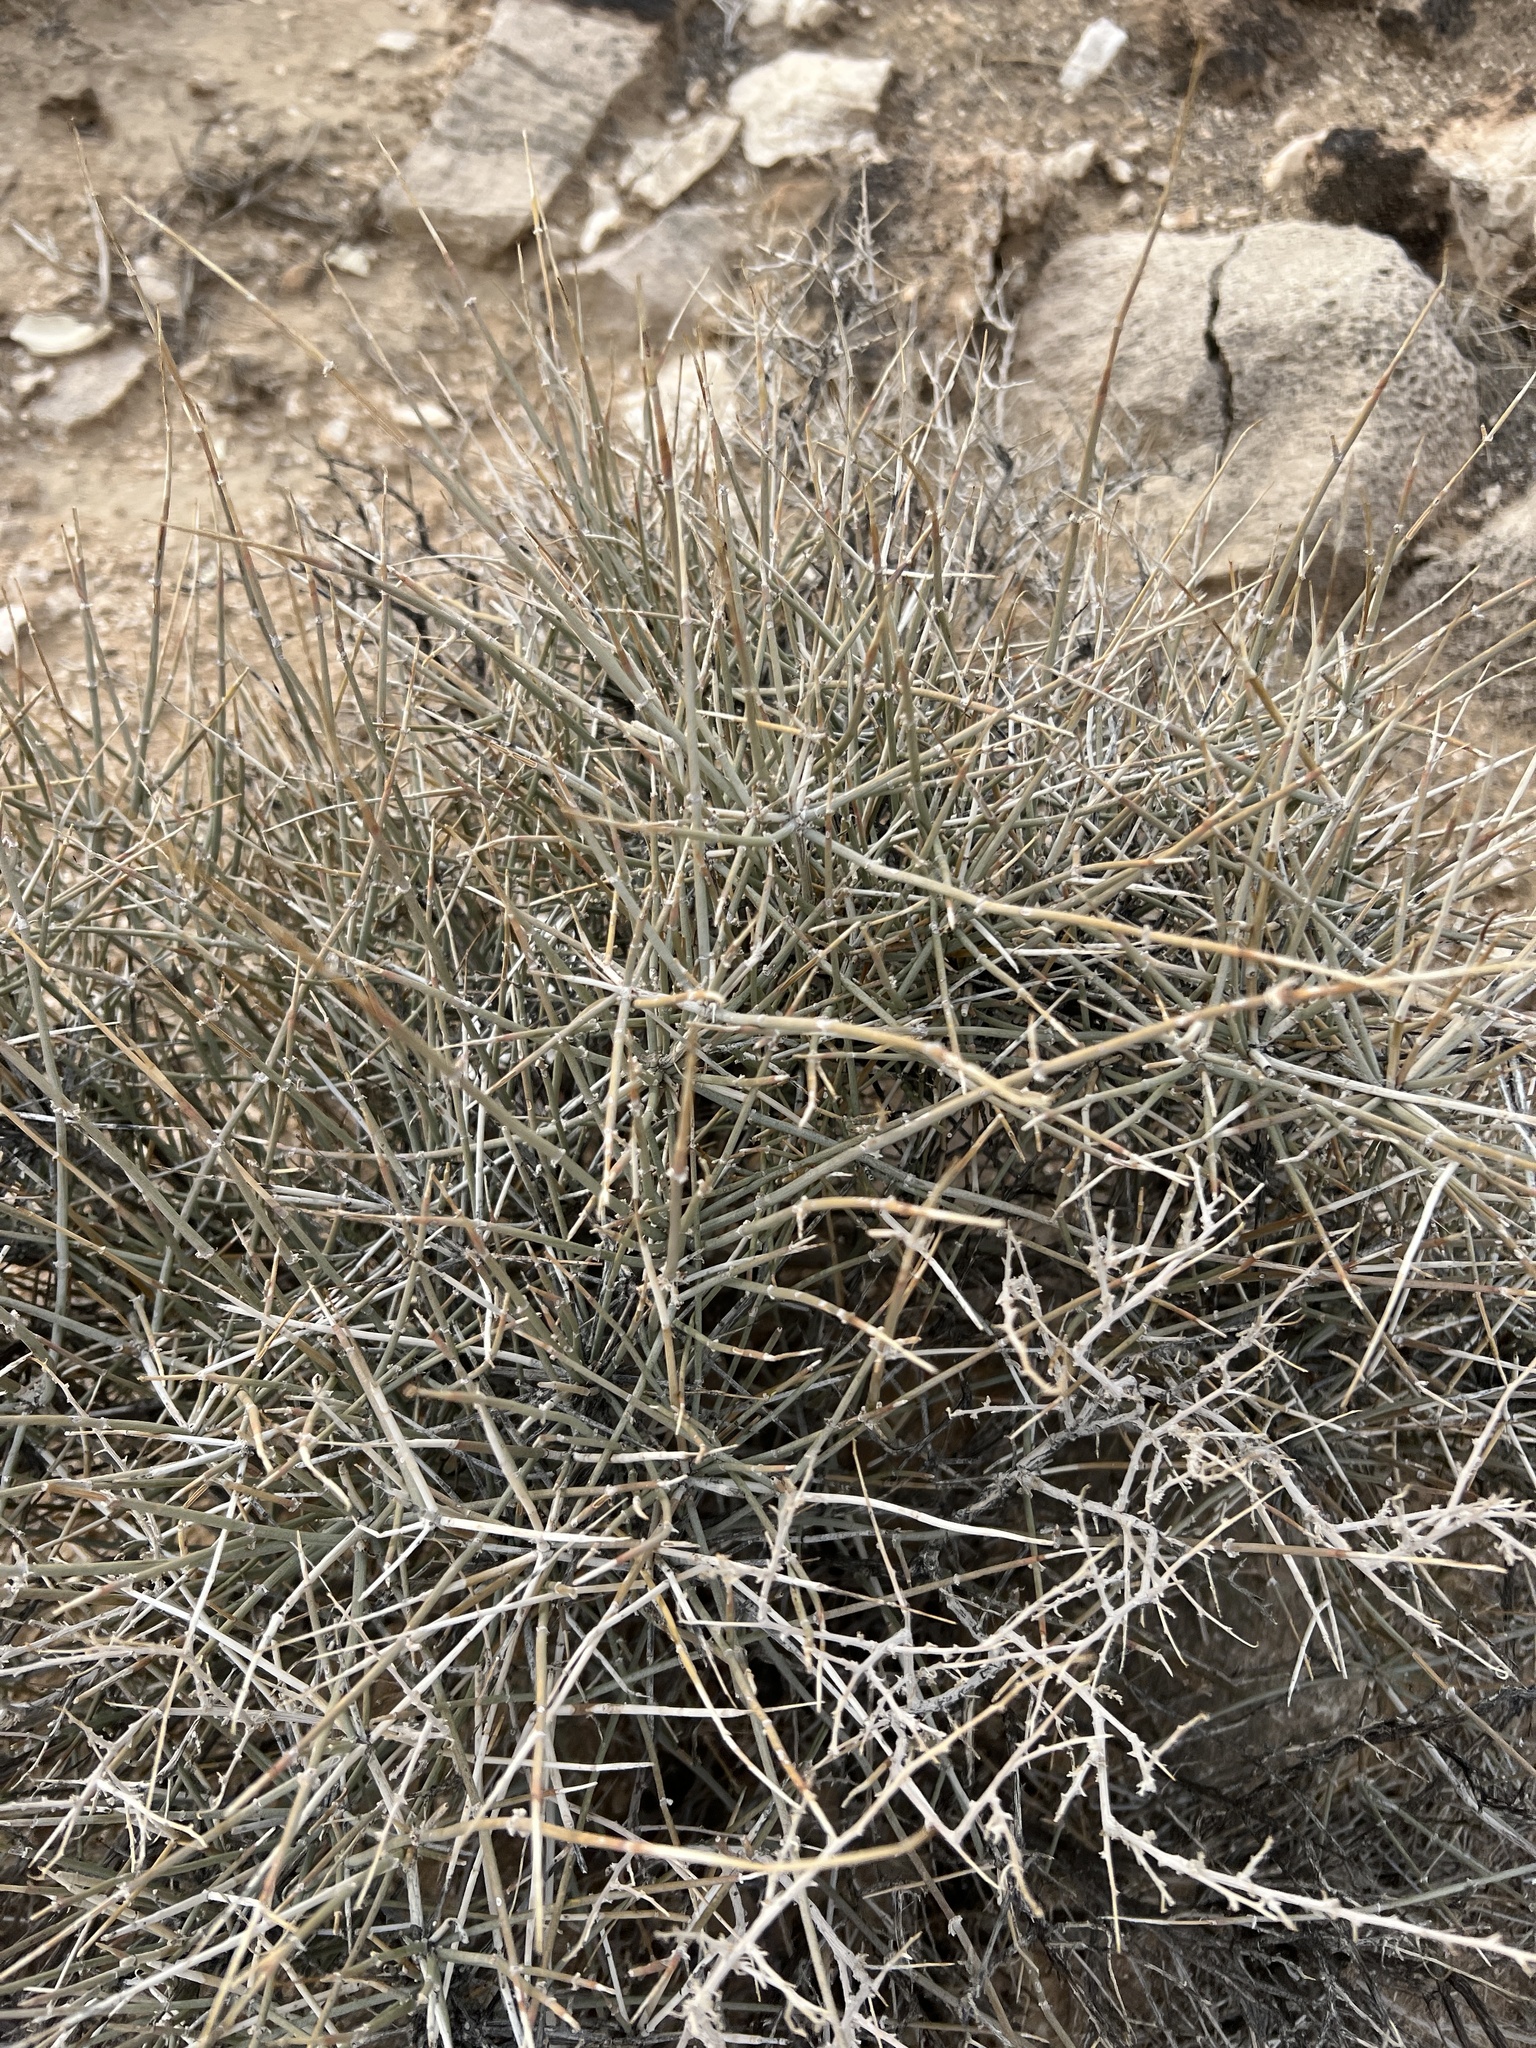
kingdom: Plantae
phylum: Tracheophyta
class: Gnetopsida
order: Ephedrales
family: Ephedraceae
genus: Ephedra
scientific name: Ephedra nevadensis
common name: Gray ephedra
